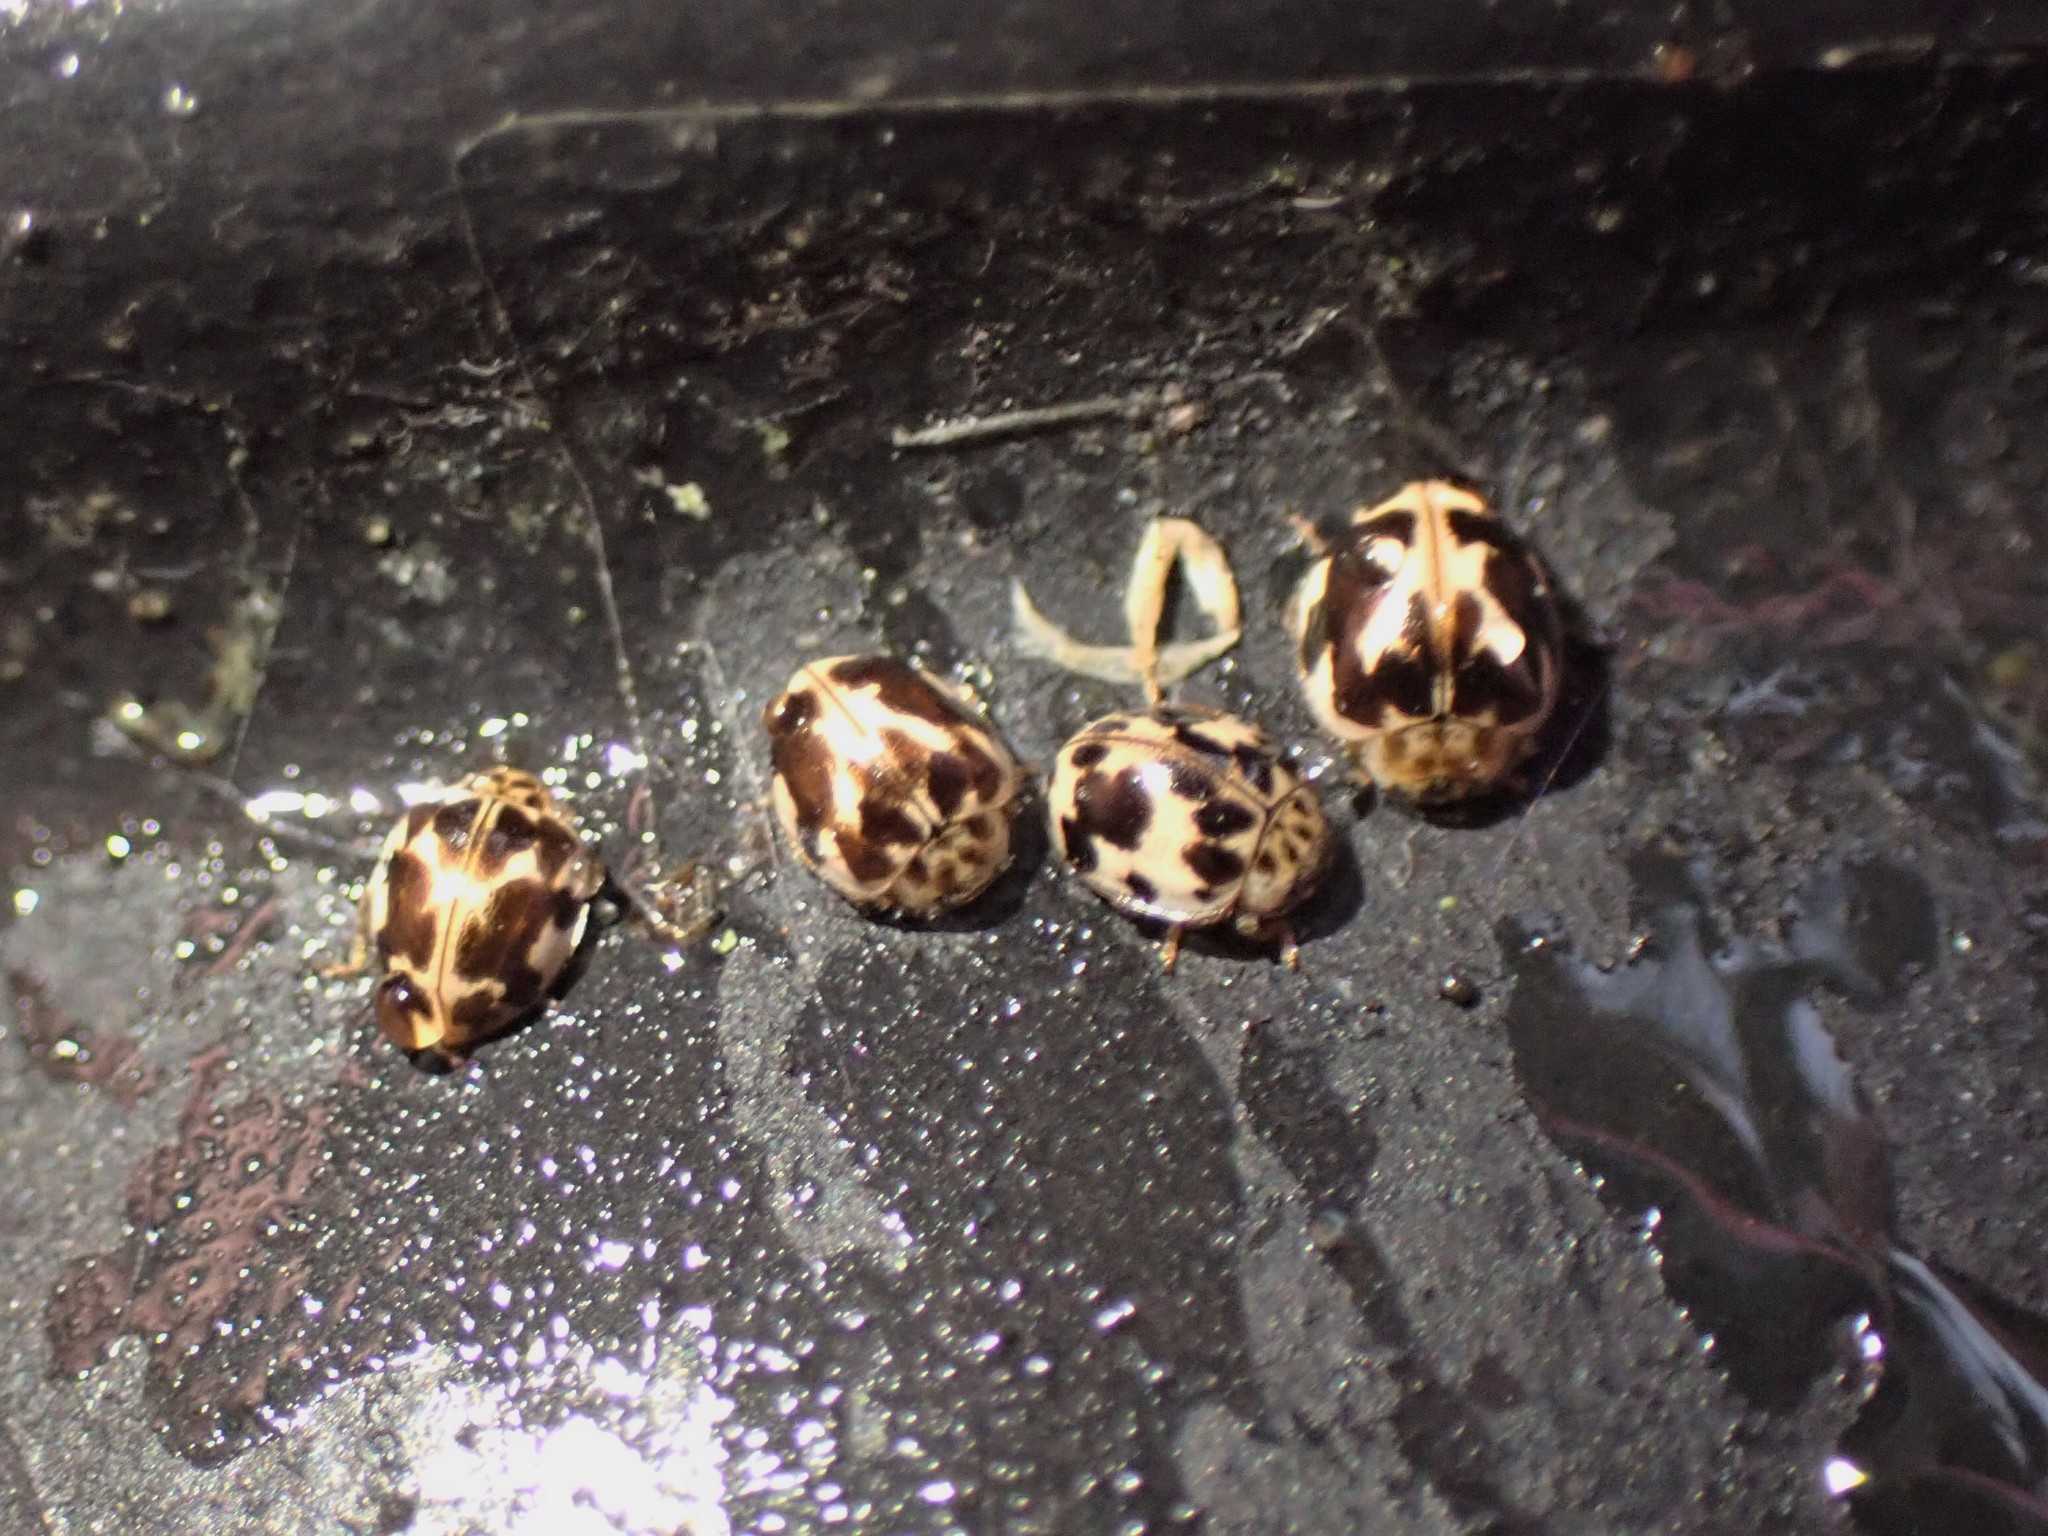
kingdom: Animalia
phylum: Arthropoda
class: Insecta
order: Coleoptera
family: Coccinellidae
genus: Psyllobora
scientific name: Psyllobora borealis
